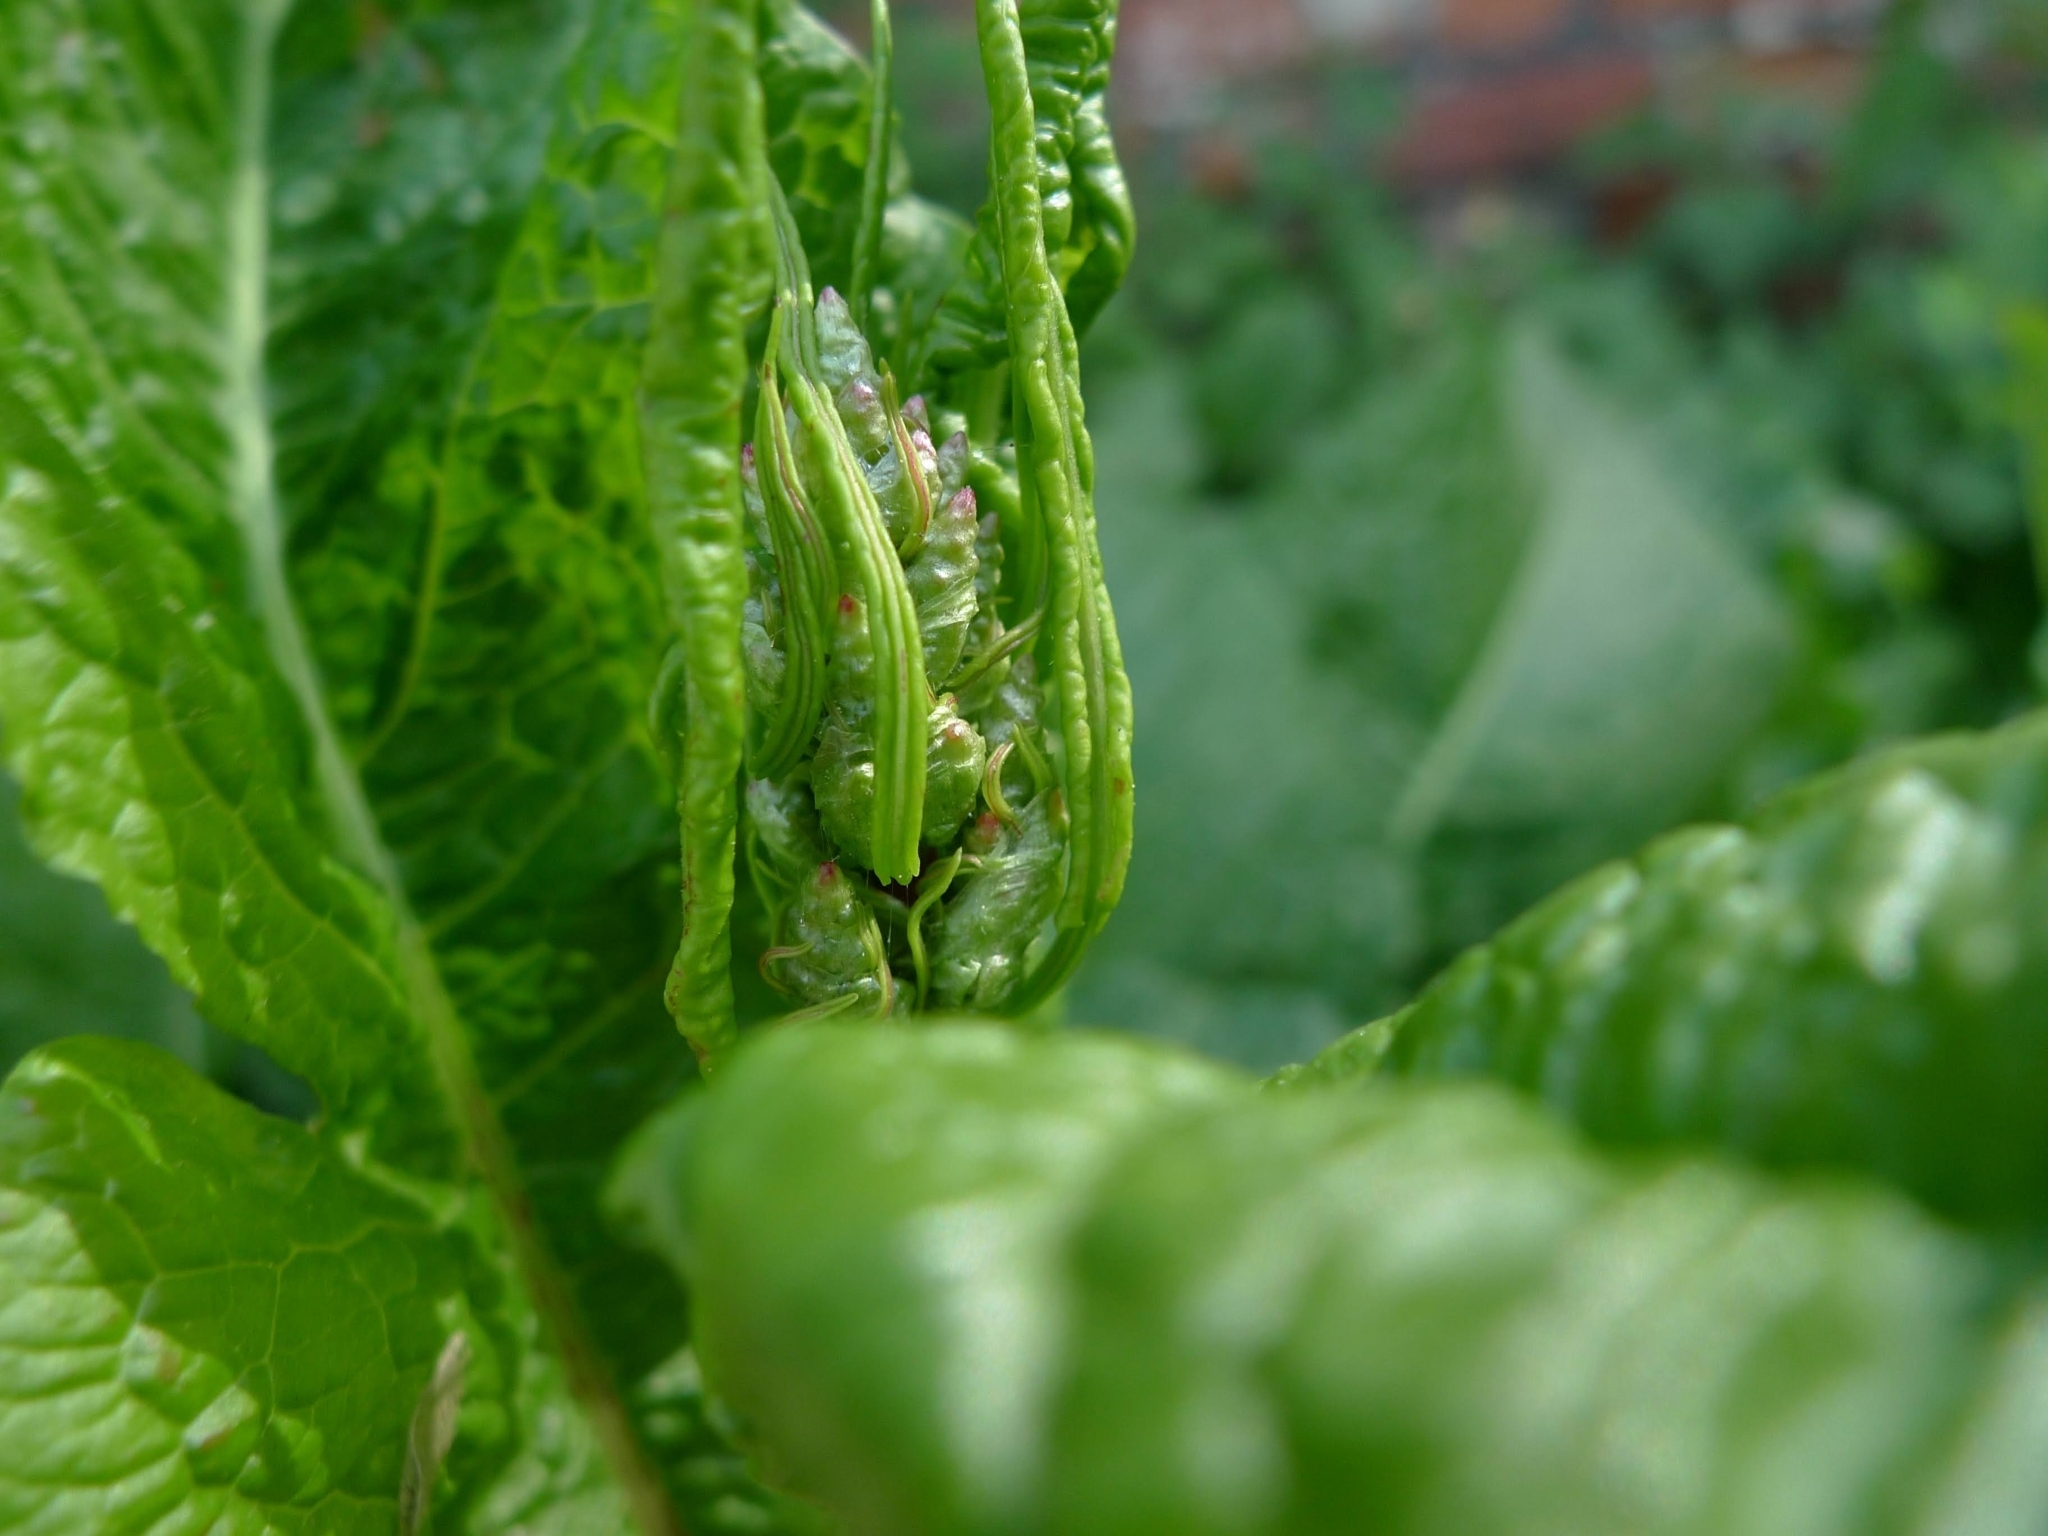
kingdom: Plantae
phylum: Tracheophyta
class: Magnoliopsida
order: Caryophyllales
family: Polygonaceae
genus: Rumex
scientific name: Rumex obtusifolius
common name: Bitter dock
